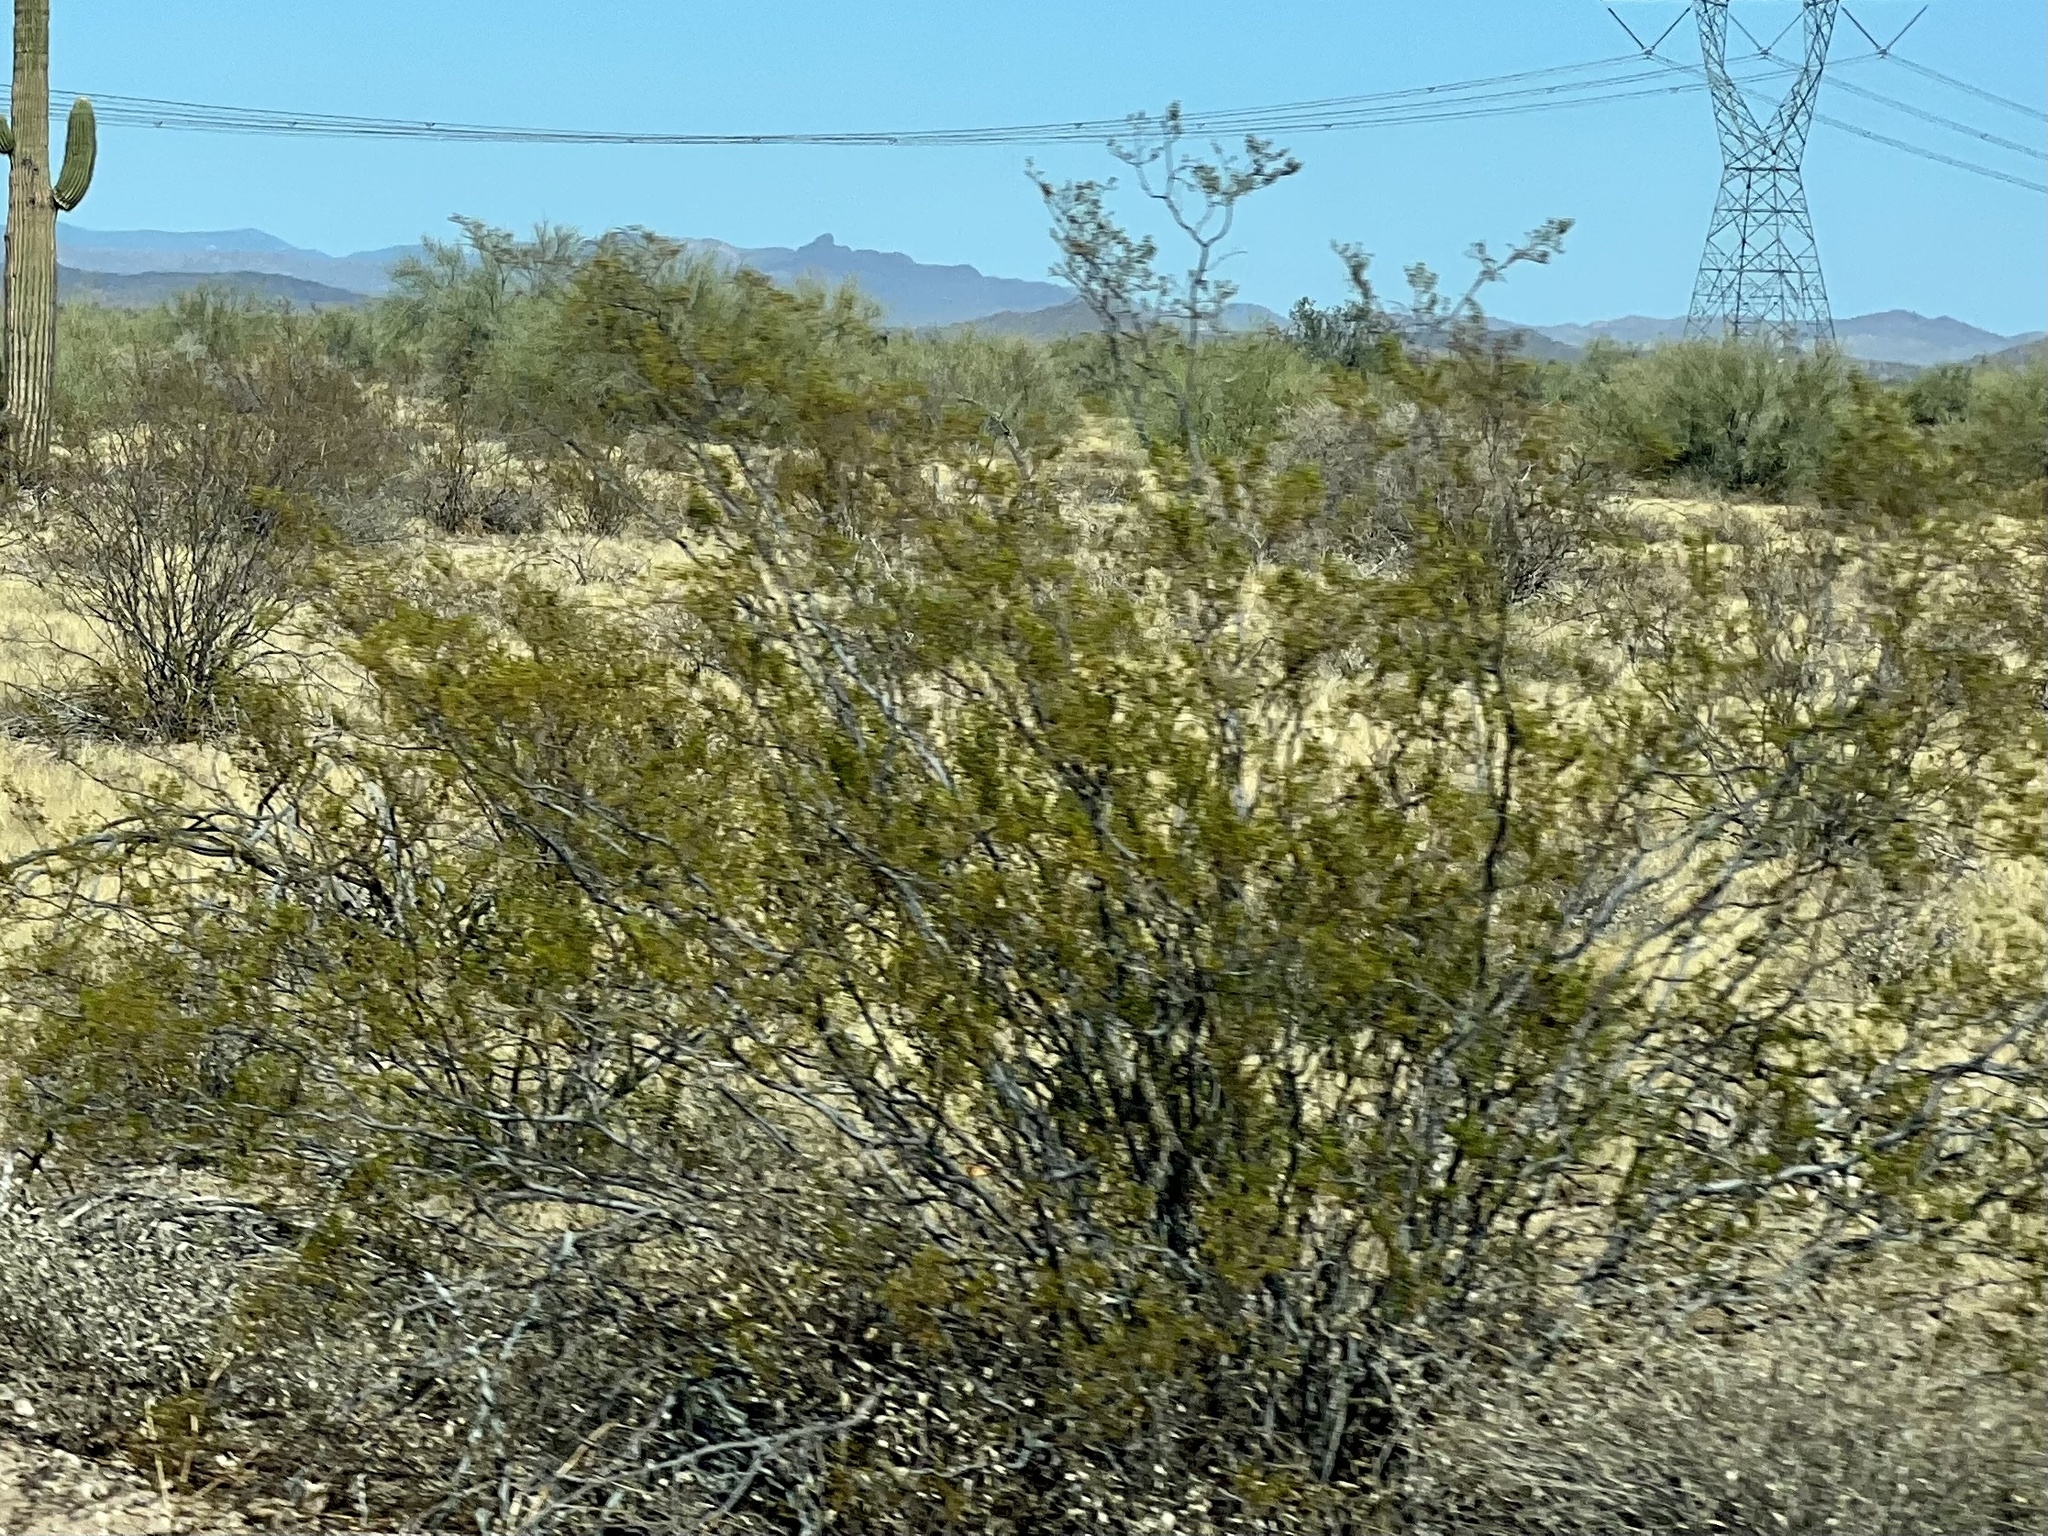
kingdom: Plantae
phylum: Tracheophyta
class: Magnoliopsida
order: Zygophyllales
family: Zygophyllaceae
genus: Larrea
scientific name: Larrea tridentata
